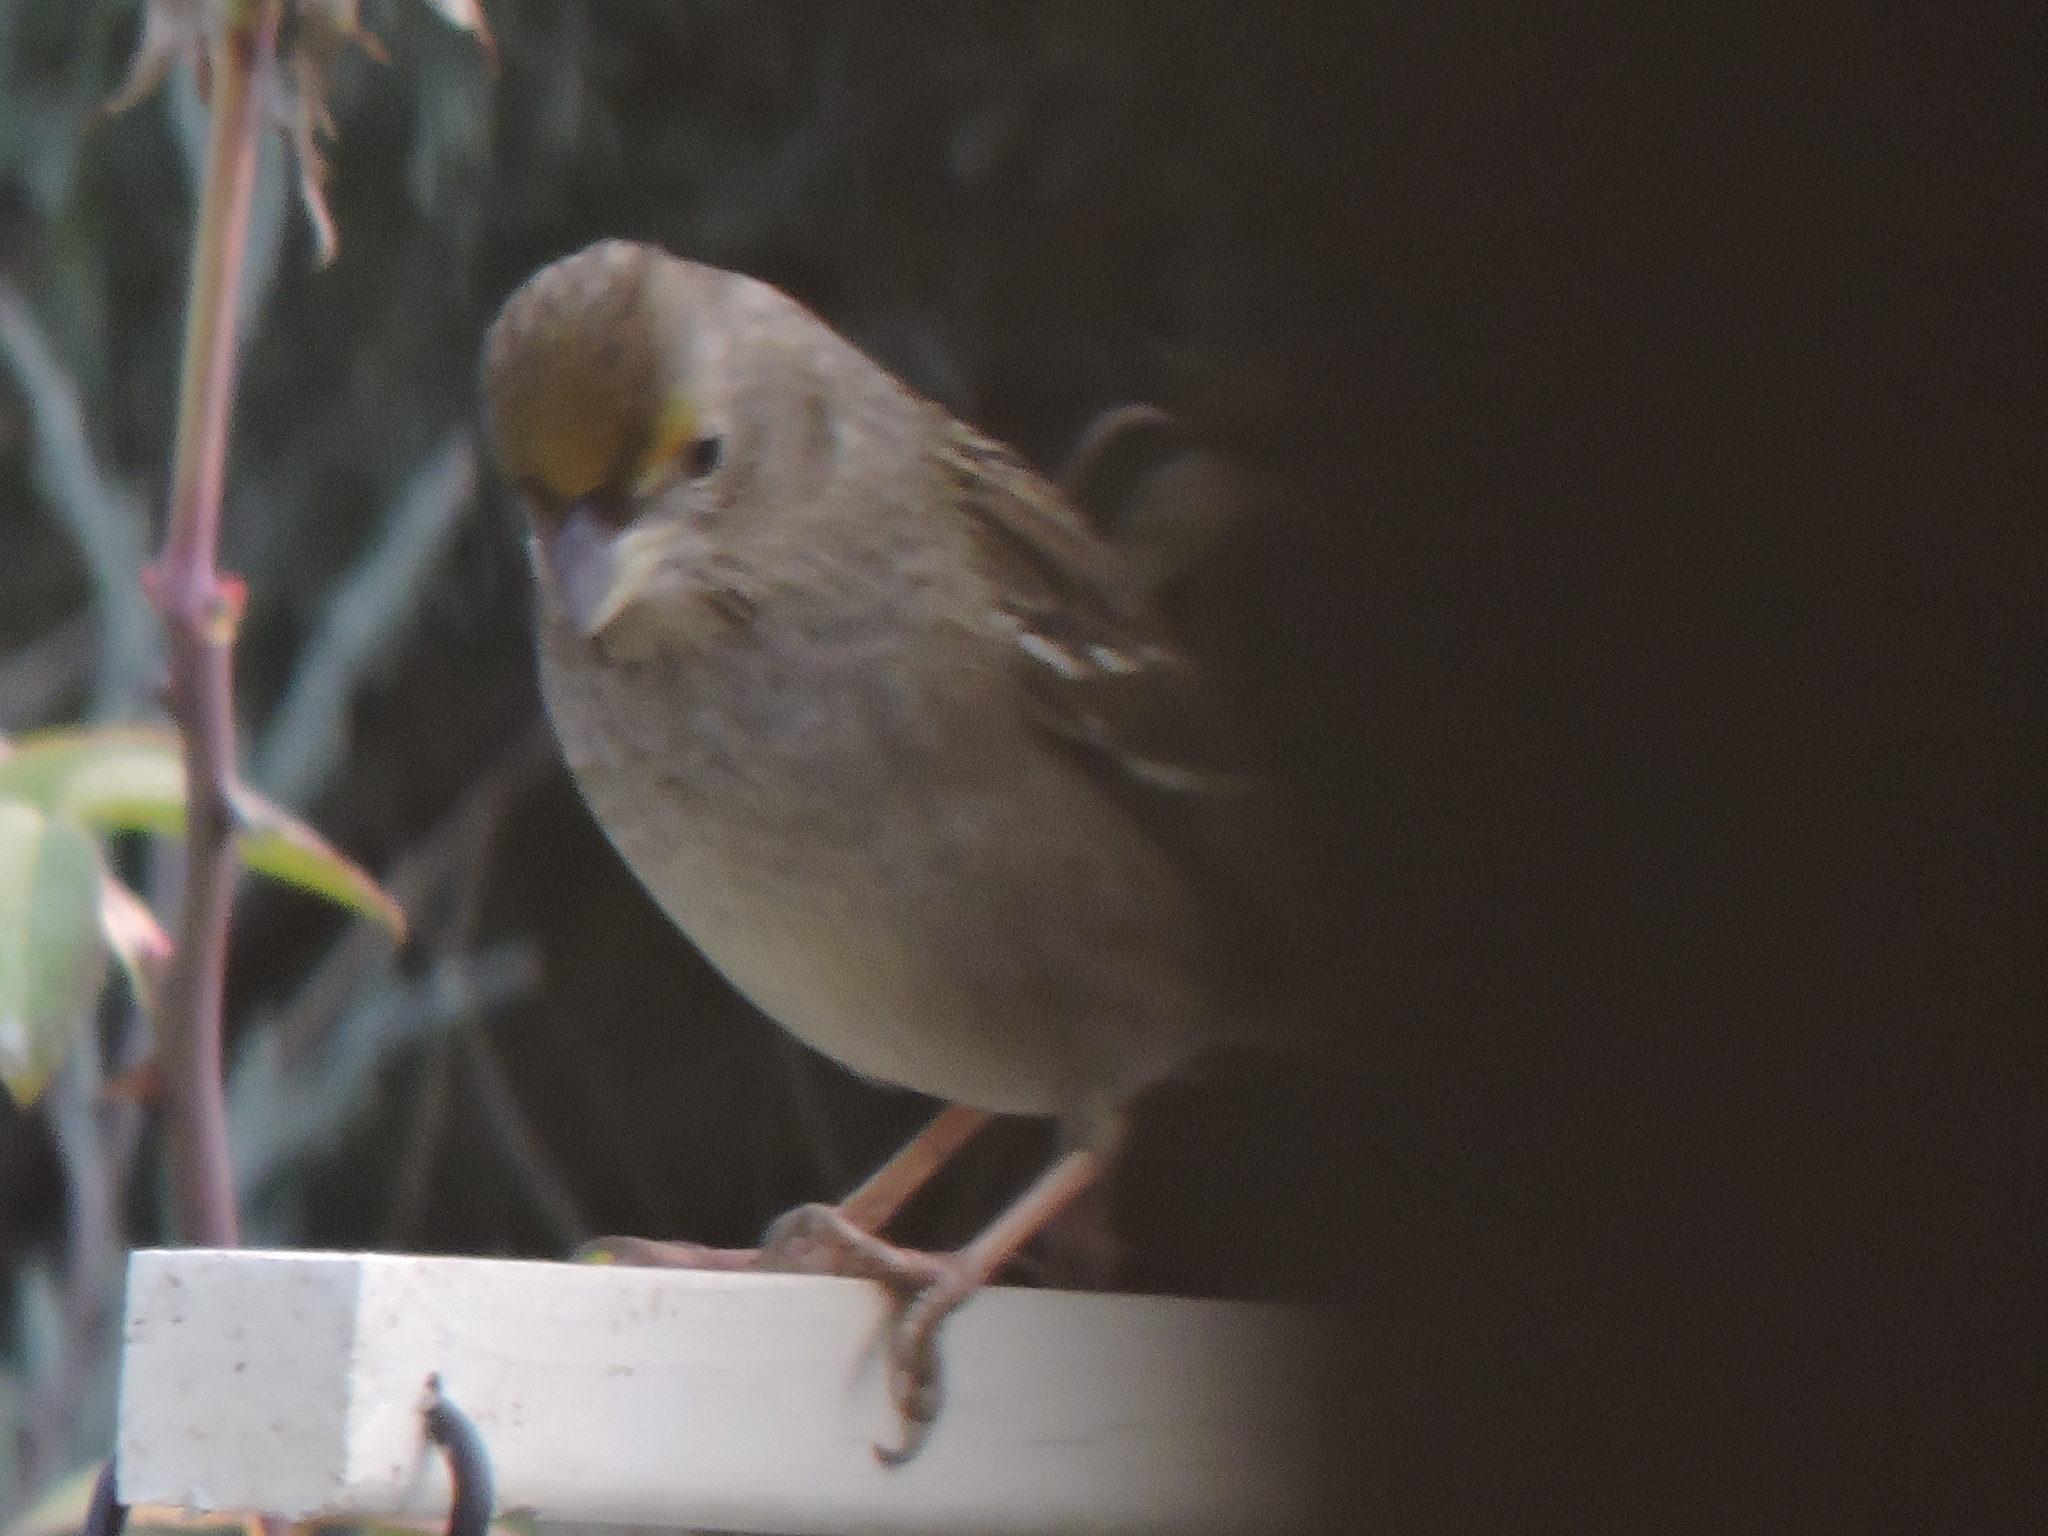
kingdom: Animalia
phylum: Chordata
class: Aves
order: Passeriformes
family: Passerellidae
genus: Zonotrichia
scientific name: Zonotrichia atricapilla
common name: Golden-crowned sparrow
